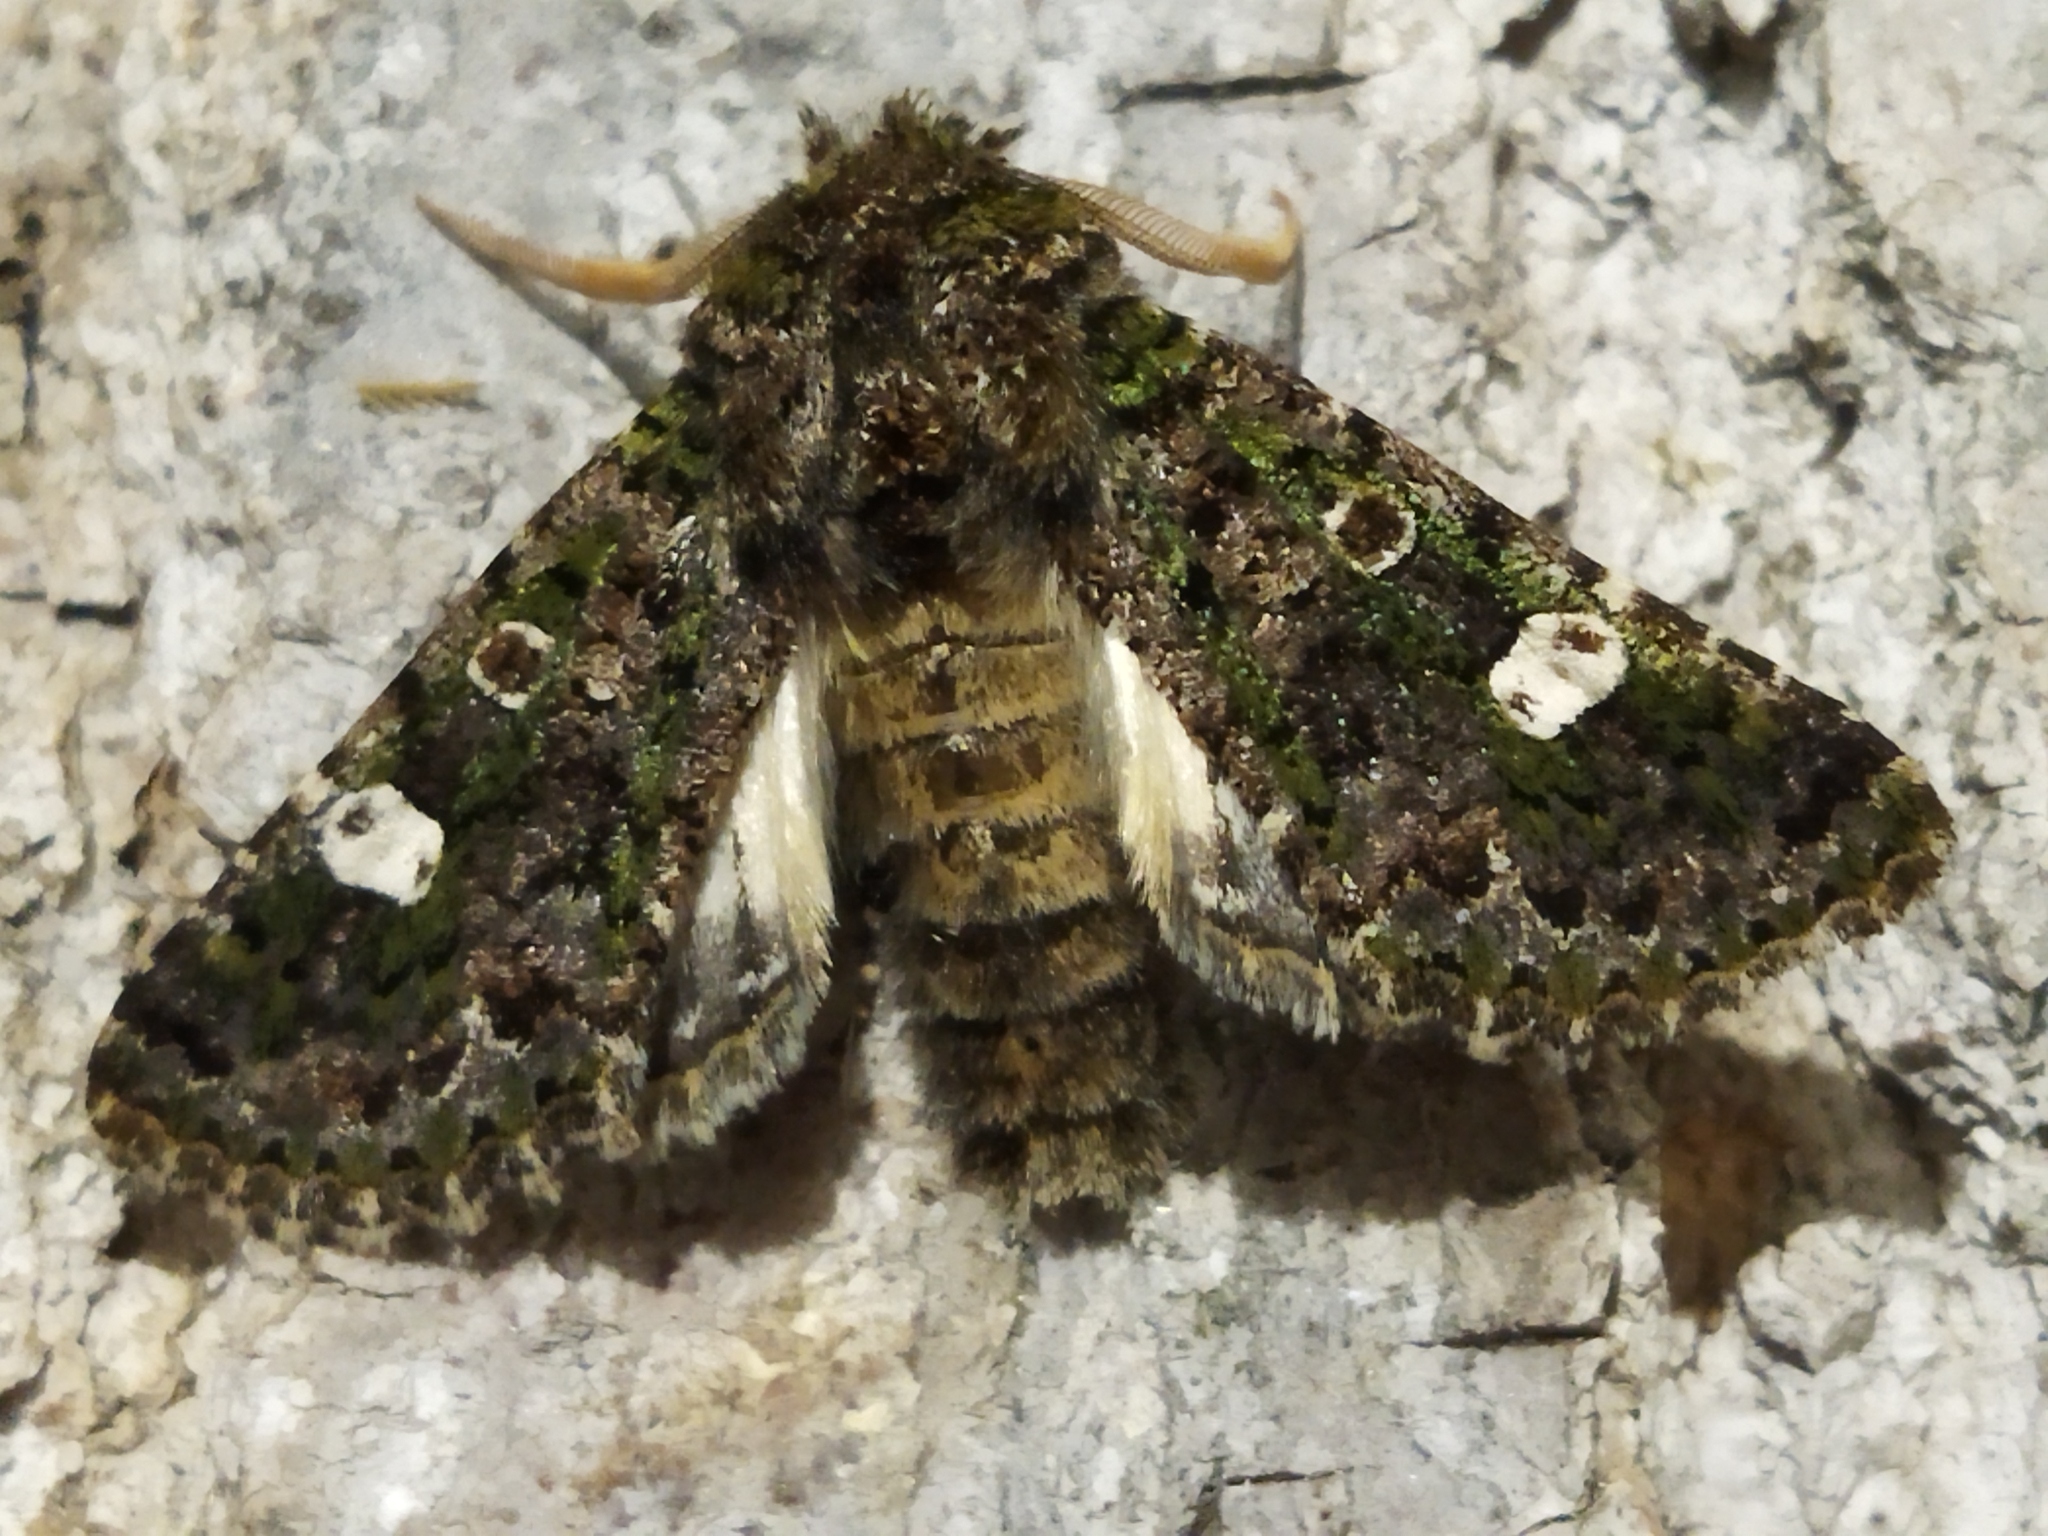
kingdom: Animalia
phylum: Arthropoda
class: Insecta
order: Lepidoptera
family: Noctuidae
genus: Valeria
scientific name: Valeria oleagina
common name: Green-brindled dot
